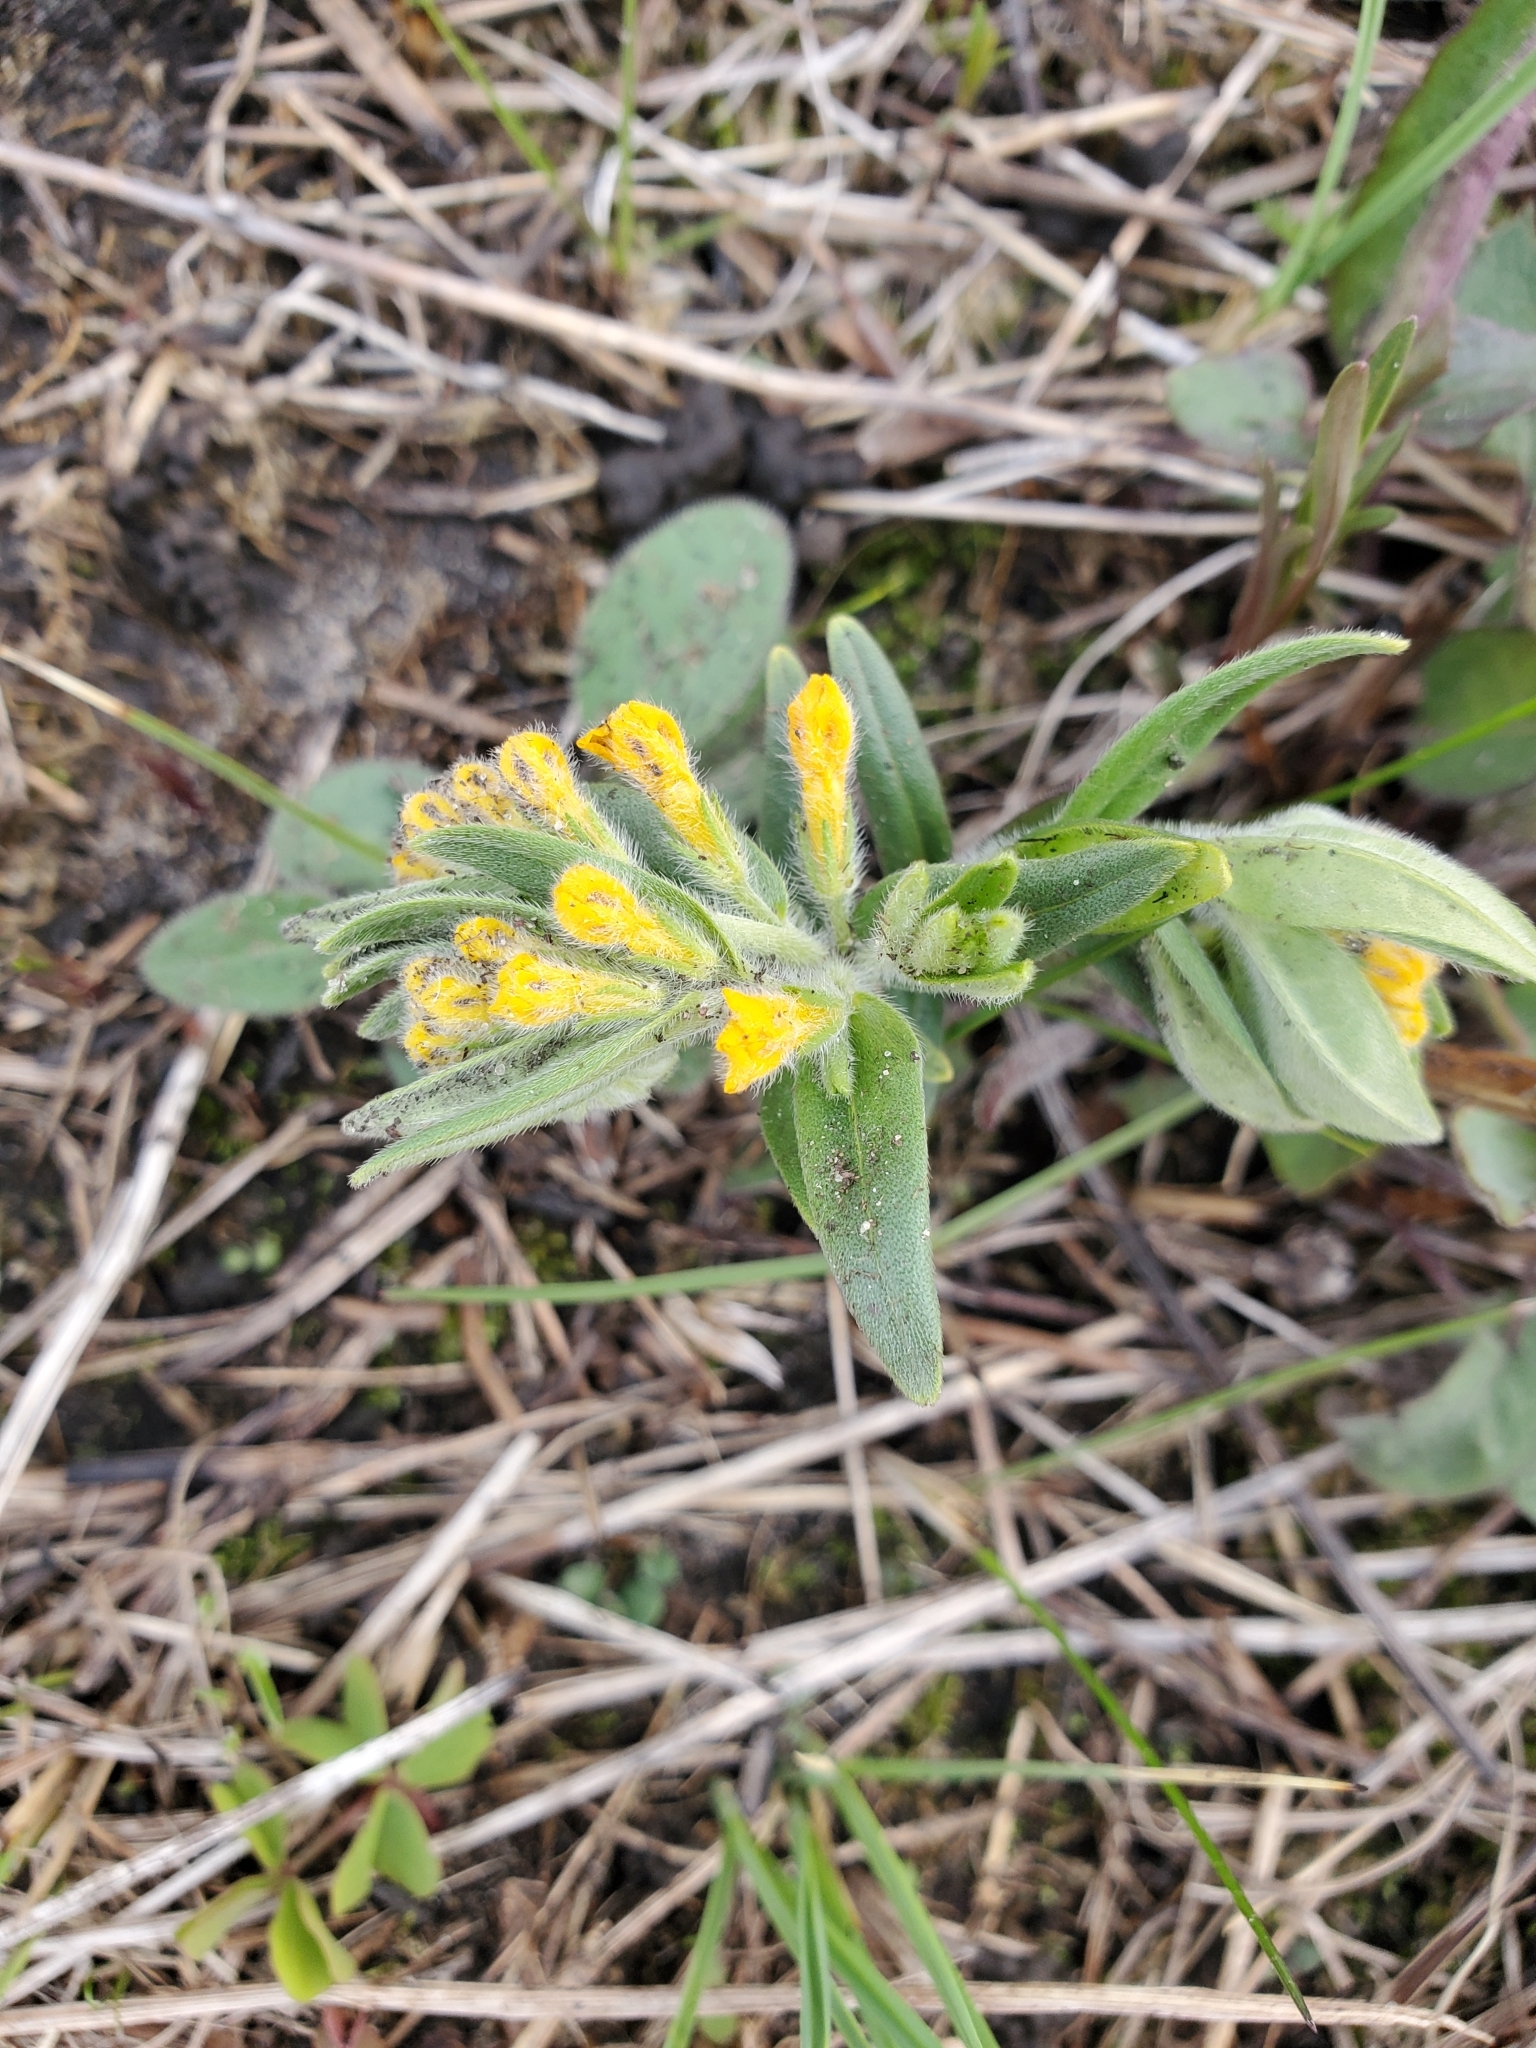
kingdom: Plantae
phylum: Tracheophyta
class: Magnoliopsida
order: Boraginales
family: Boraginaceae
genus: Lithospermum
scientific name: Lithospermum canescens
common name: Hoary puccoon
